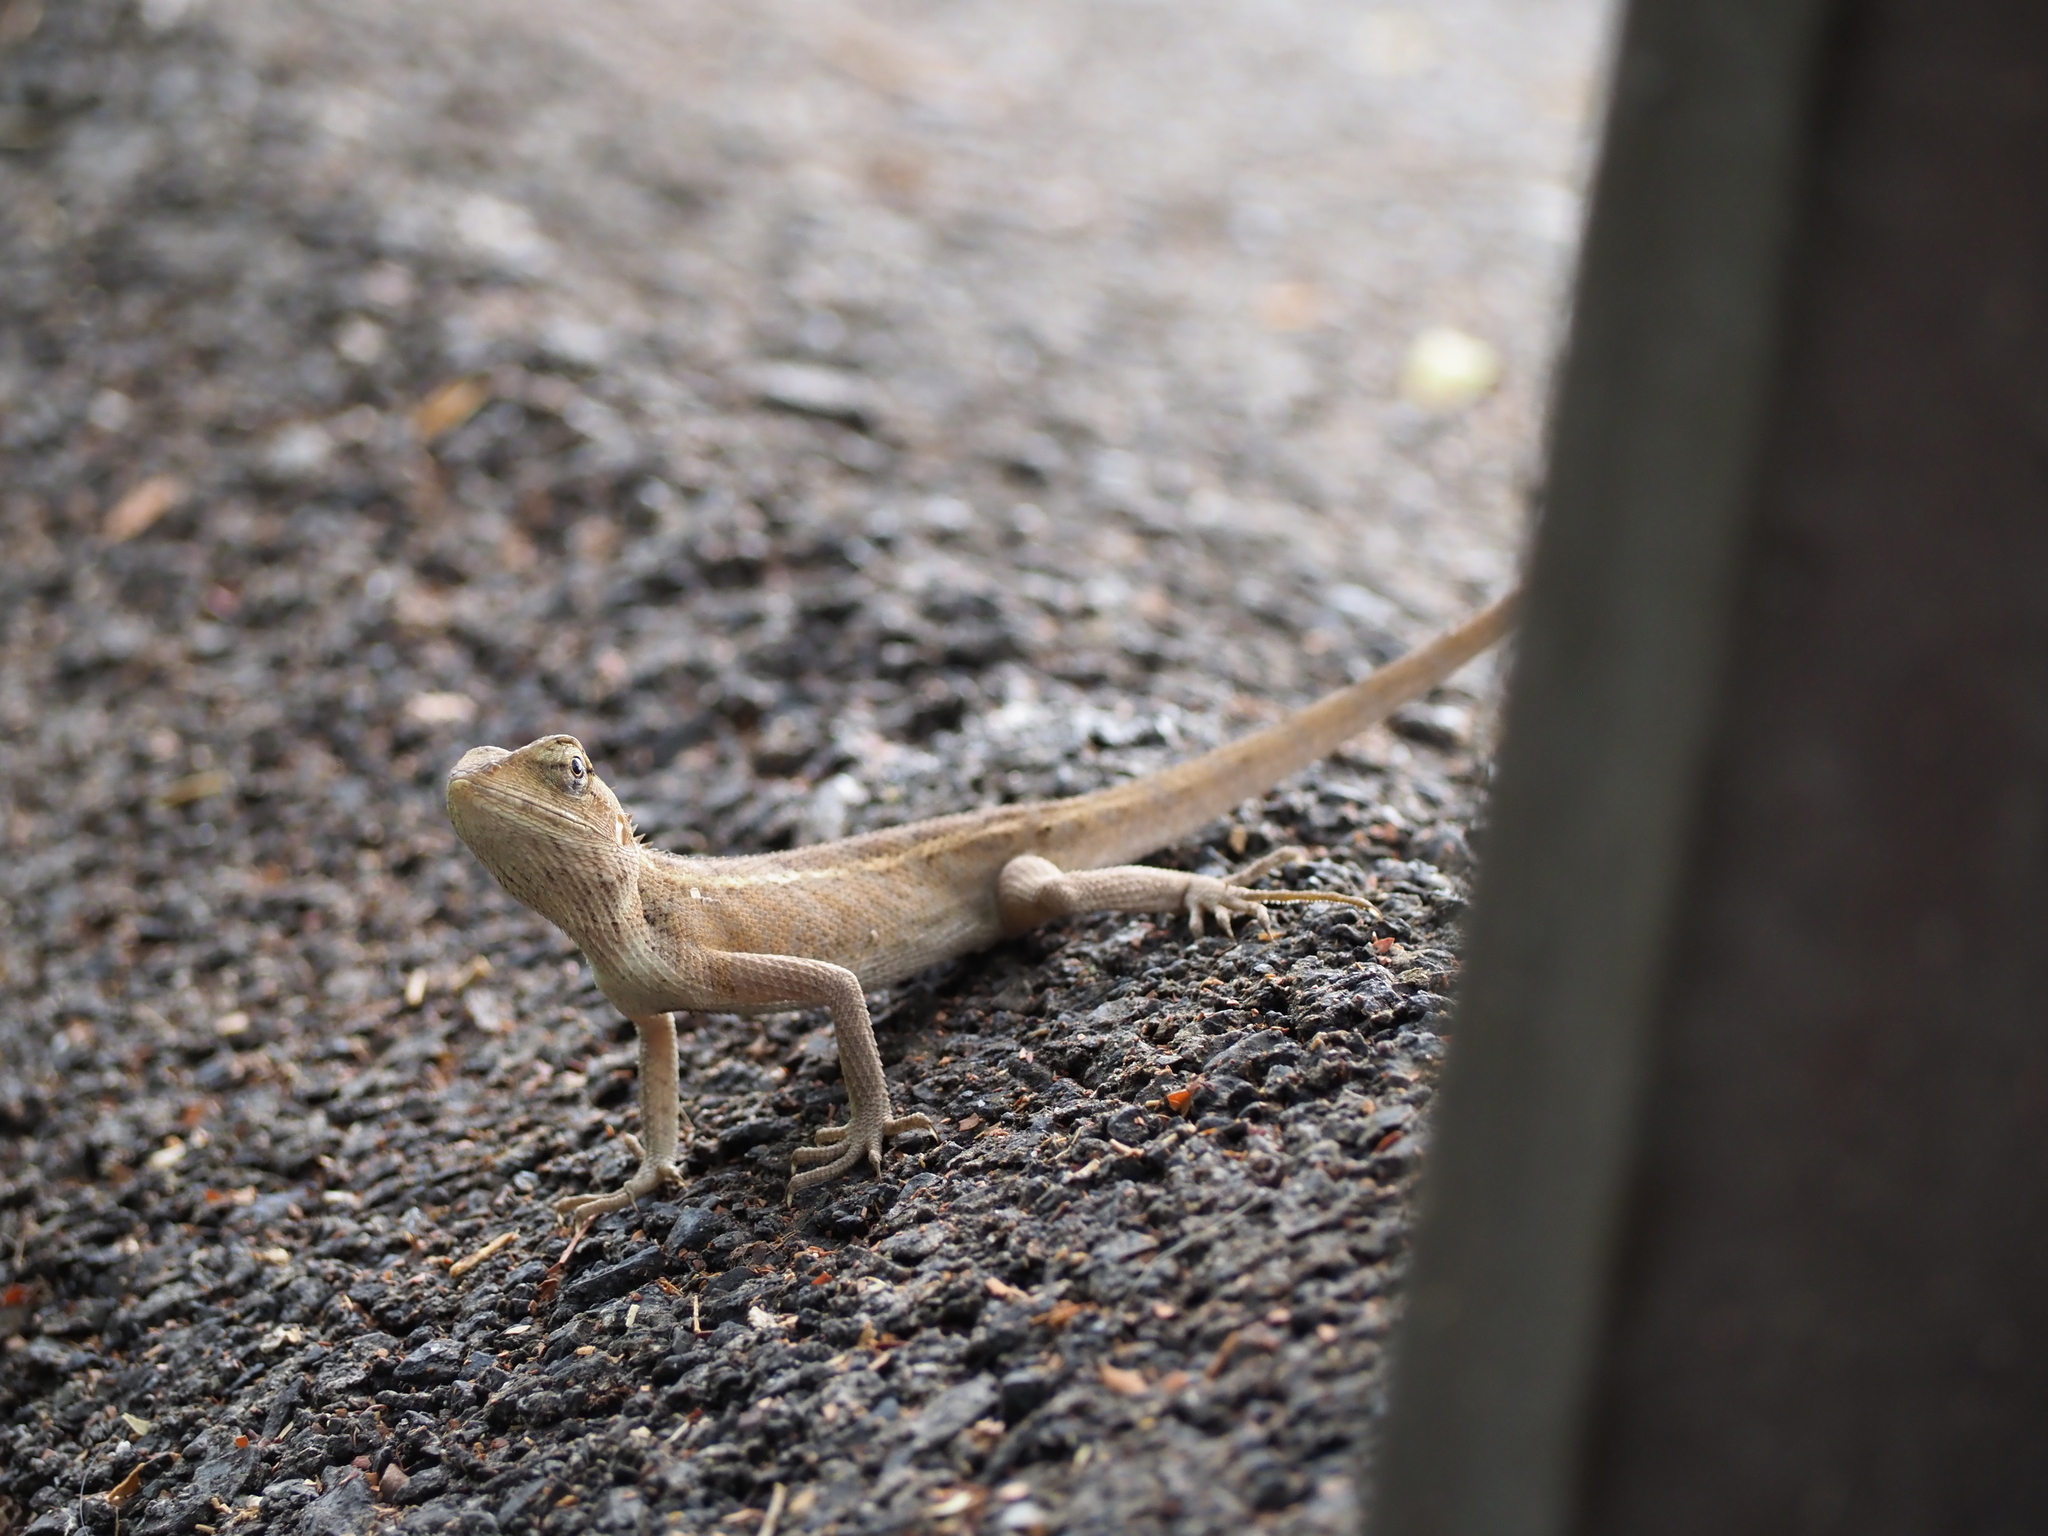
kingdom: Animalia
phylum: Chordata
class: Squamata
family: Agamidae
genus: Calotes
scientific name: Calotes versicolor
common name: Oriental garden lizard
